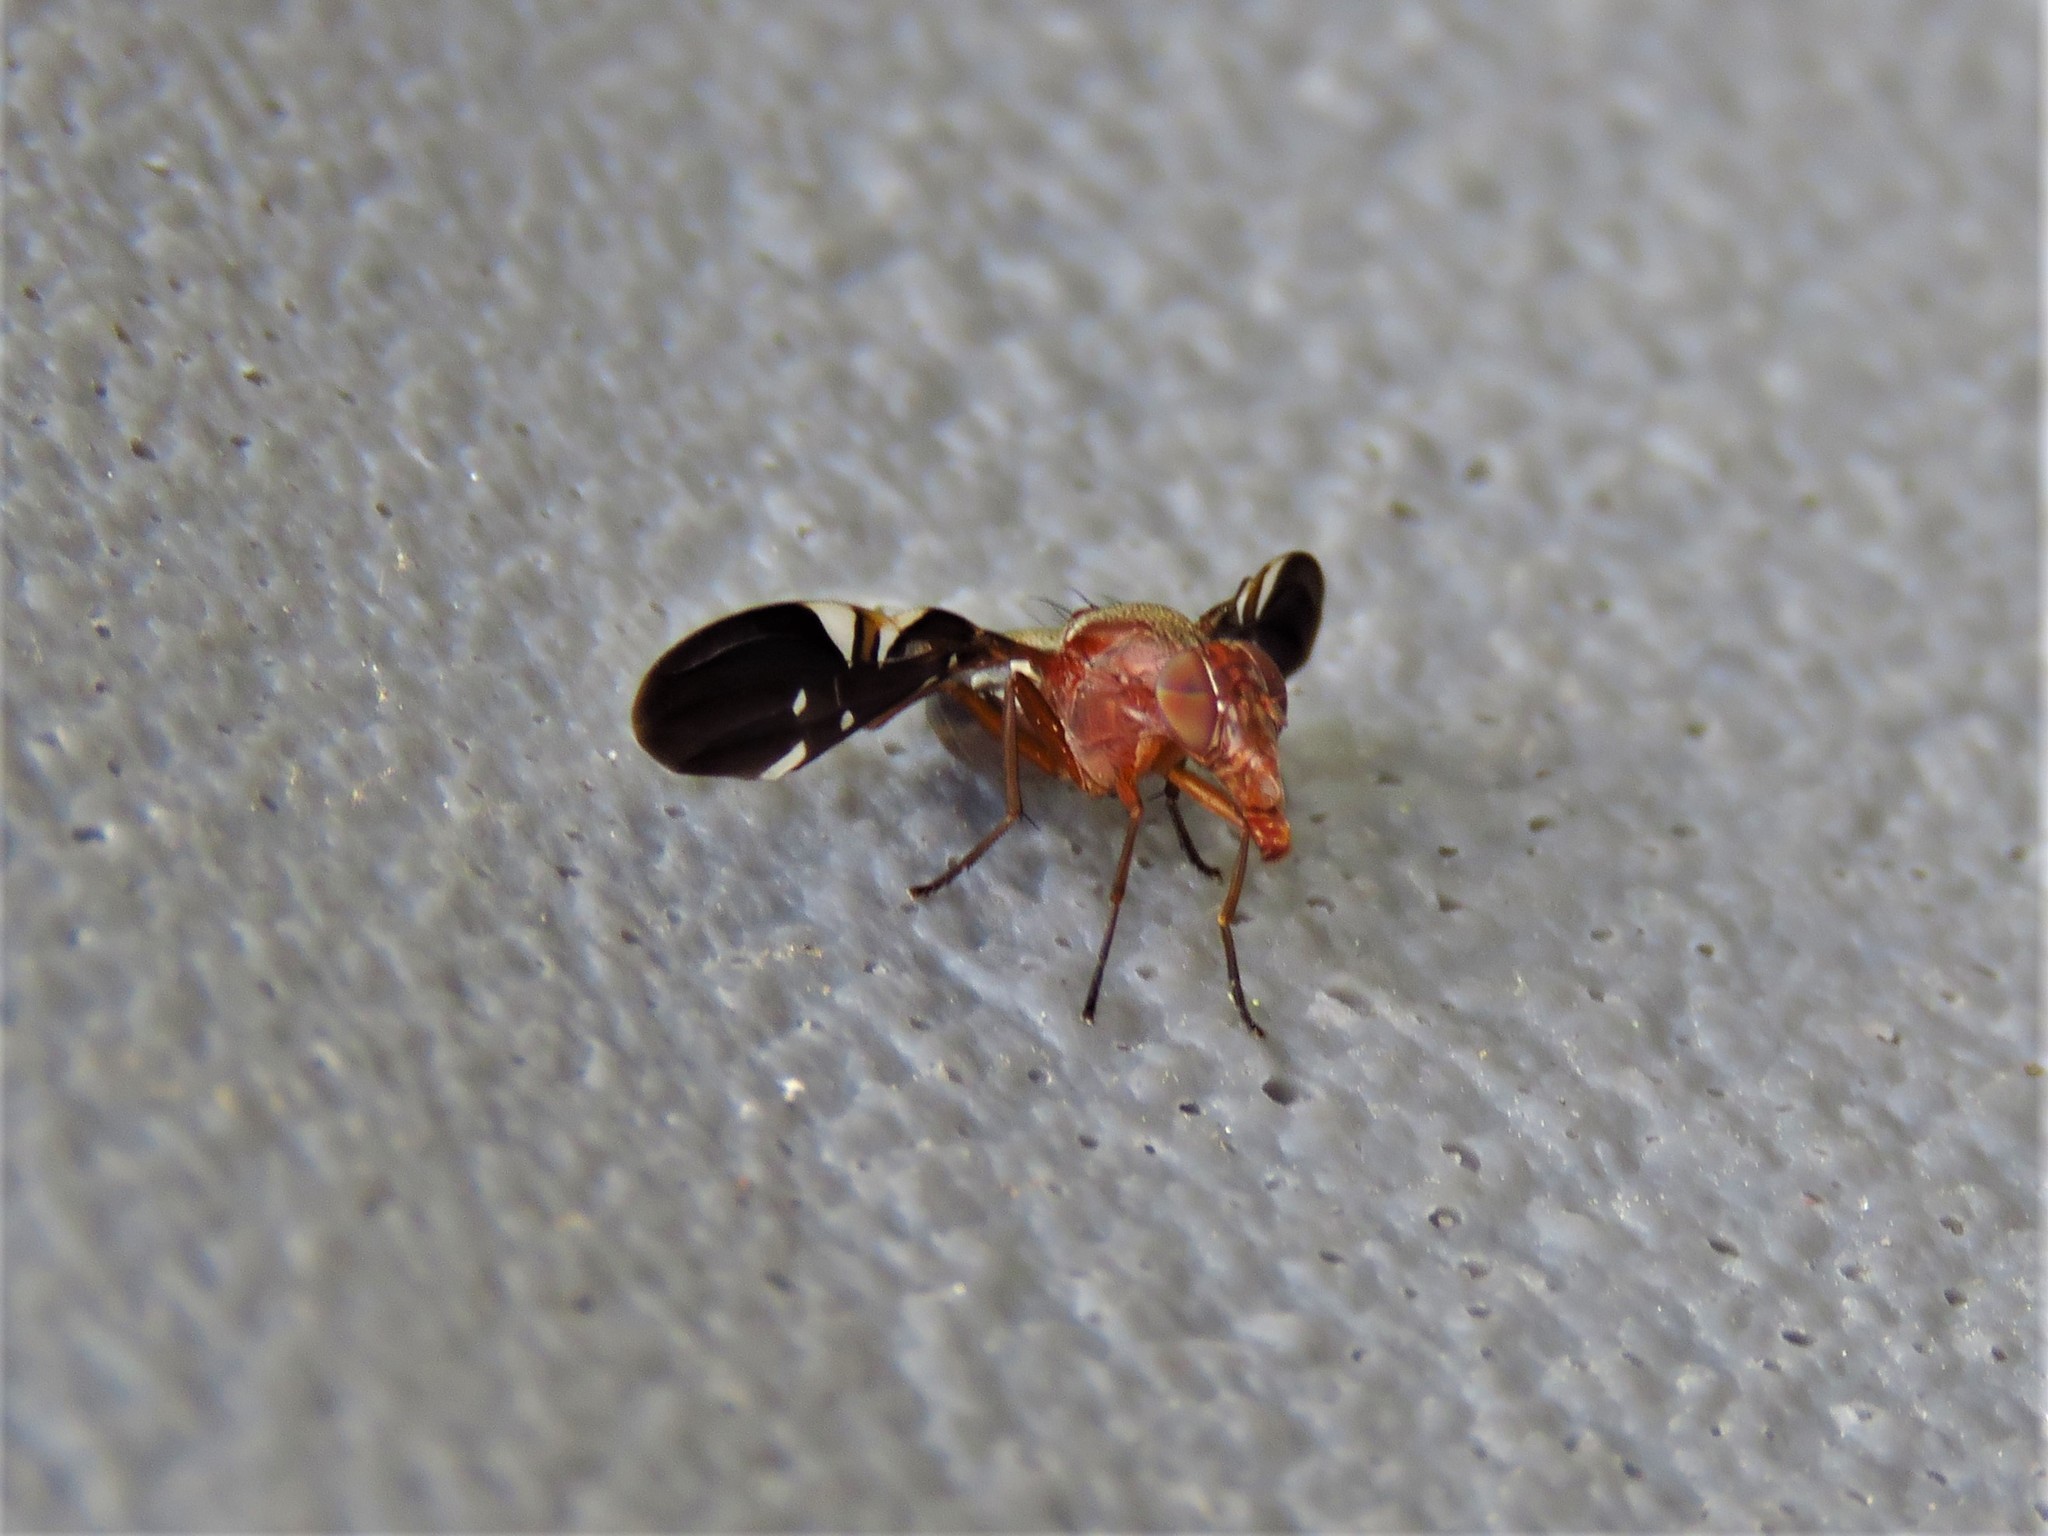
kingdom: Animalia
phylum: Arthropoda
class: Insecta
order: Diptera
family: Ulidiidae
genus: Delphinia
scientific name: Delphinia picta
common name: Common picture-winged fly
